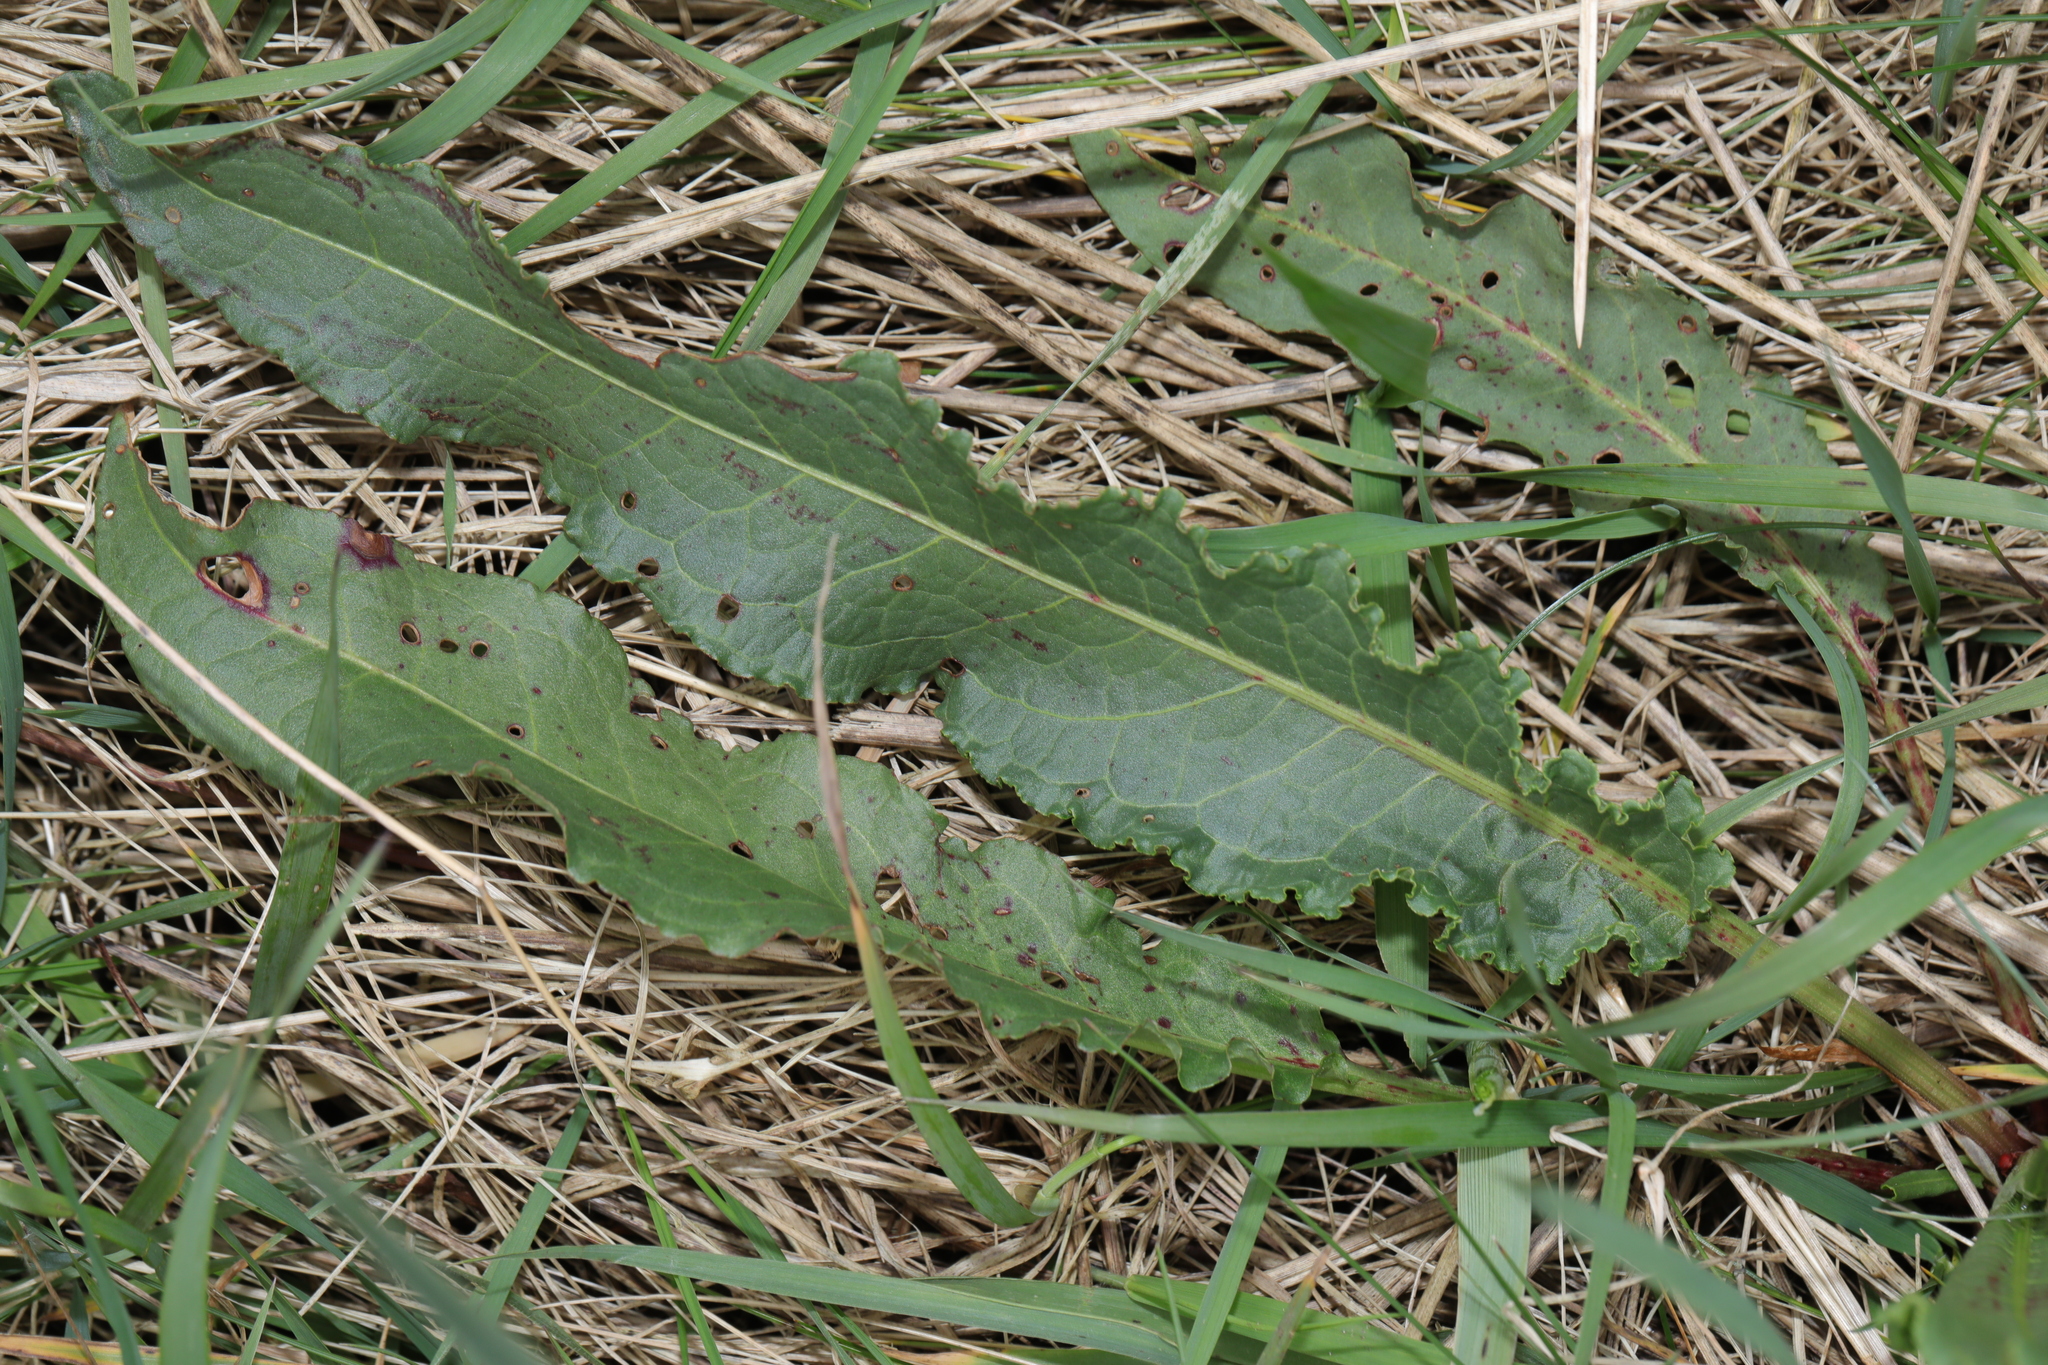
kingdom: Plantae
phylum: Tracheophyta
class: Magnoliopsida
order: Caryophyllales
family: Polygonaceae
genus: Rumex
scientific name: Rumex crispus
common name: Curled dock
